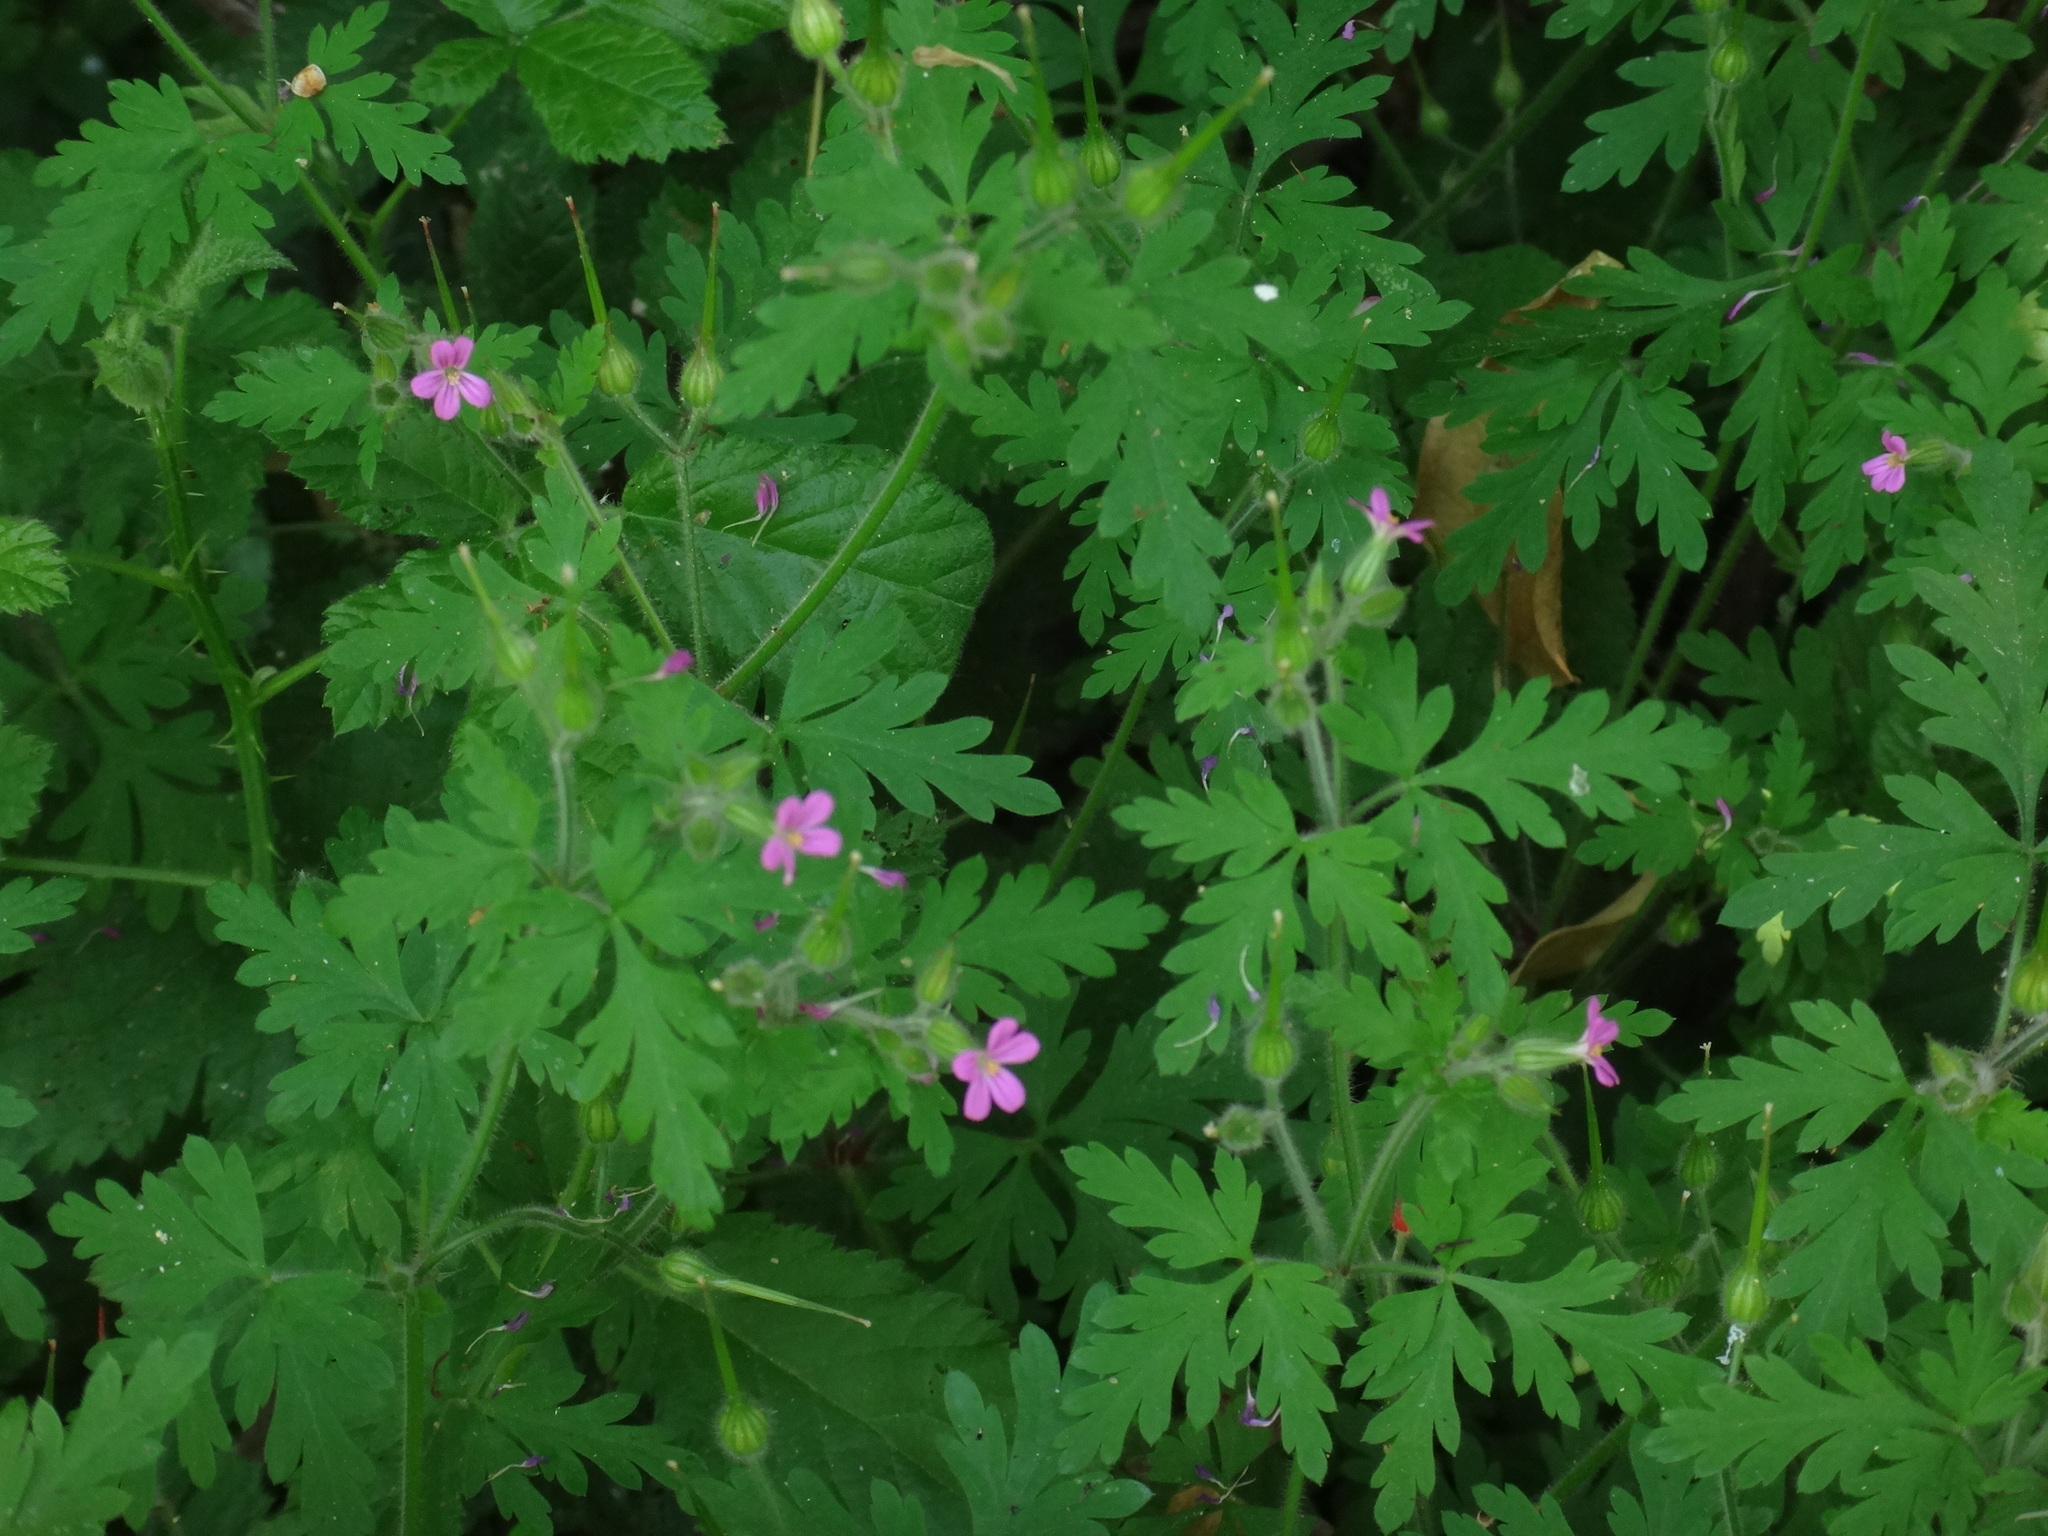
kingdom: Plantae
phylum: Tracheophyta
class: Magnoliopsida
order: Geraniales
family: Geraniaceae
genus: Geranium
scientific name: Geranium purpureum
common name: Little-robin
